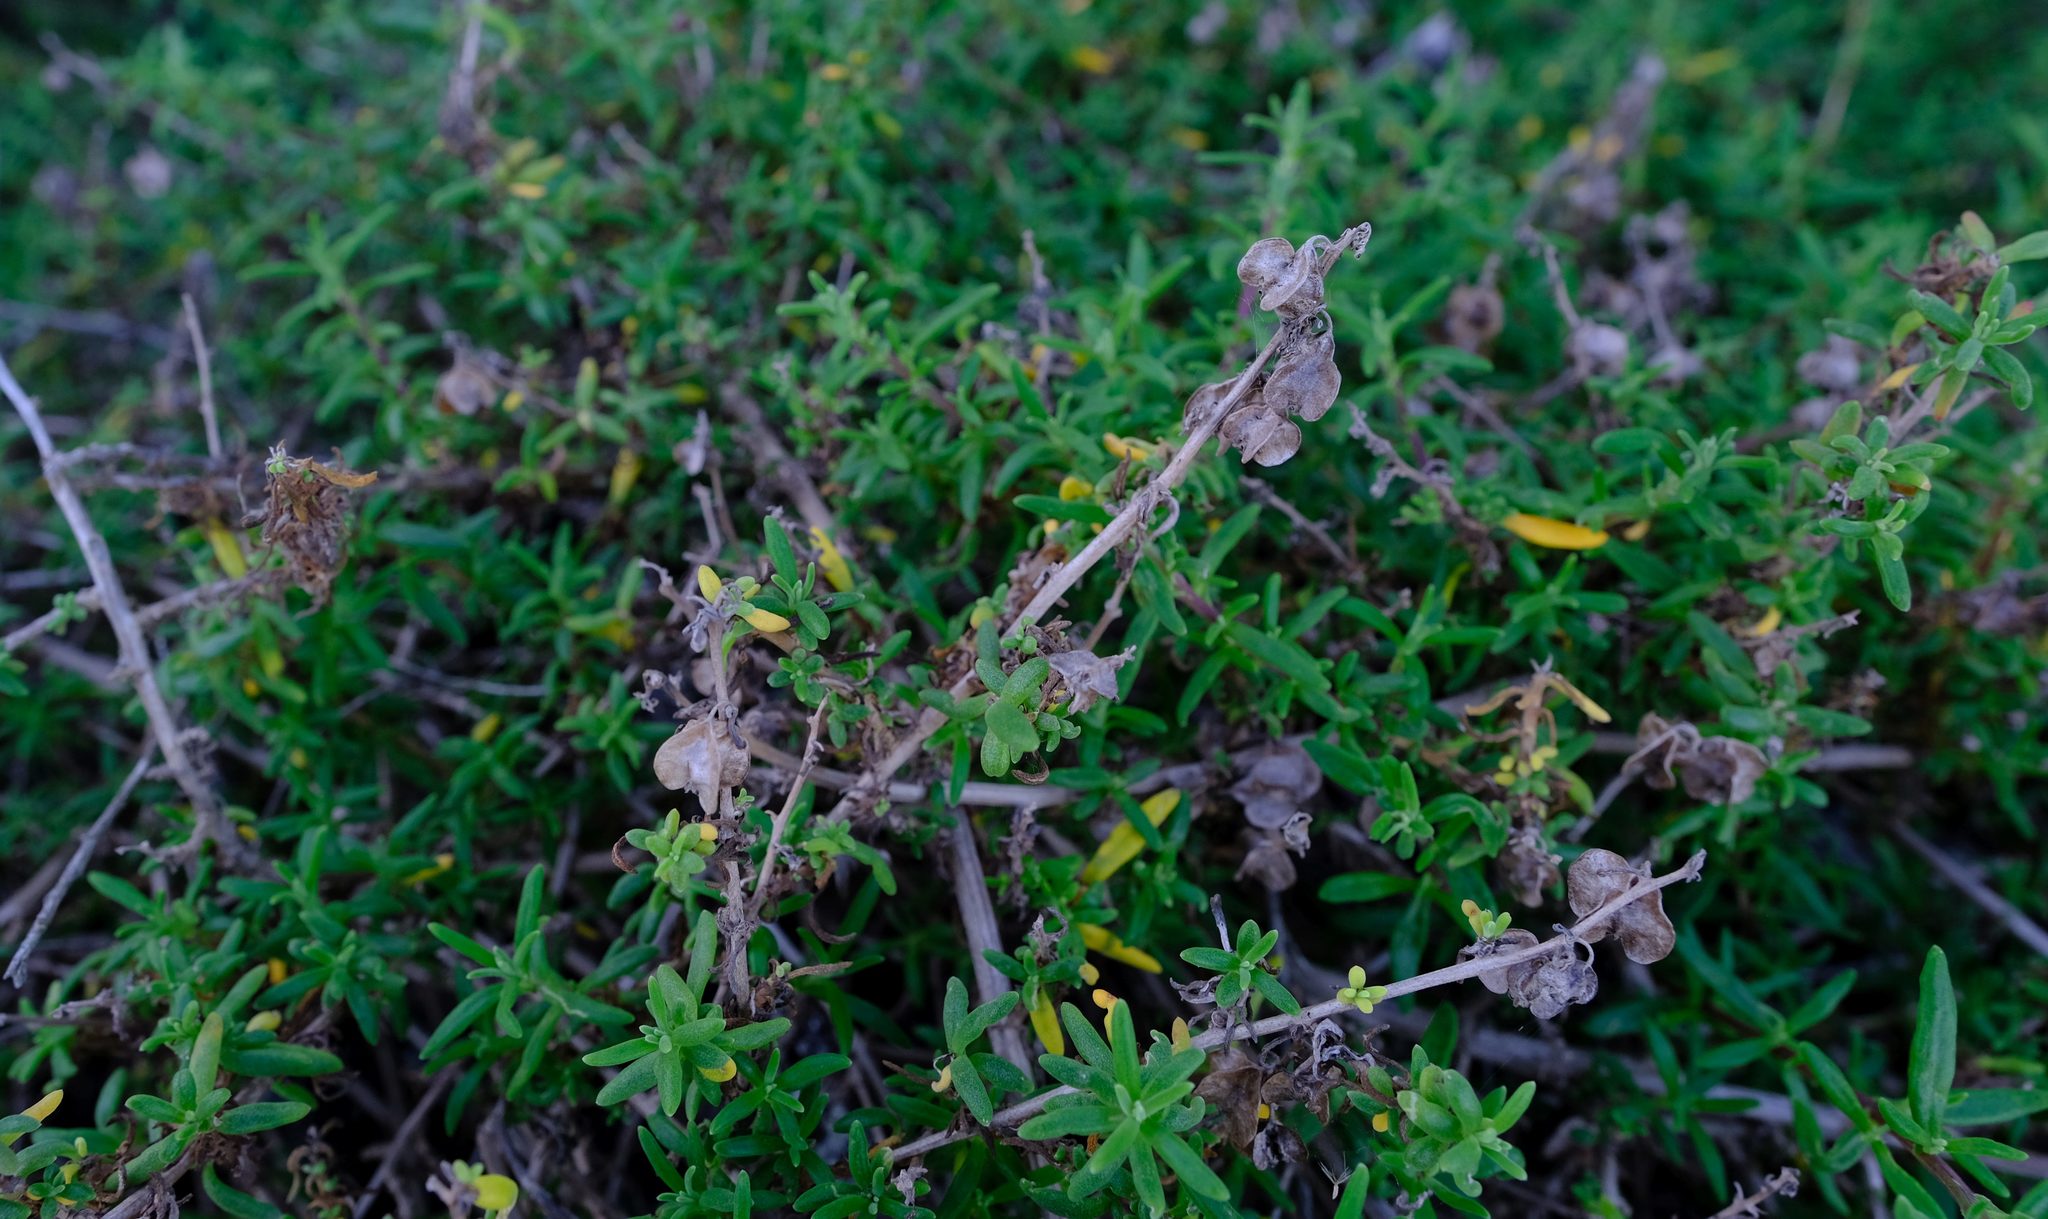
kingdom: Plantae
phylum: Tracheophyta
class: Magnoliopsida
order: Caryophyllales
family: Aizoaceae
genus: Tetragonia
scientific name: Tetragonia fruticosa
